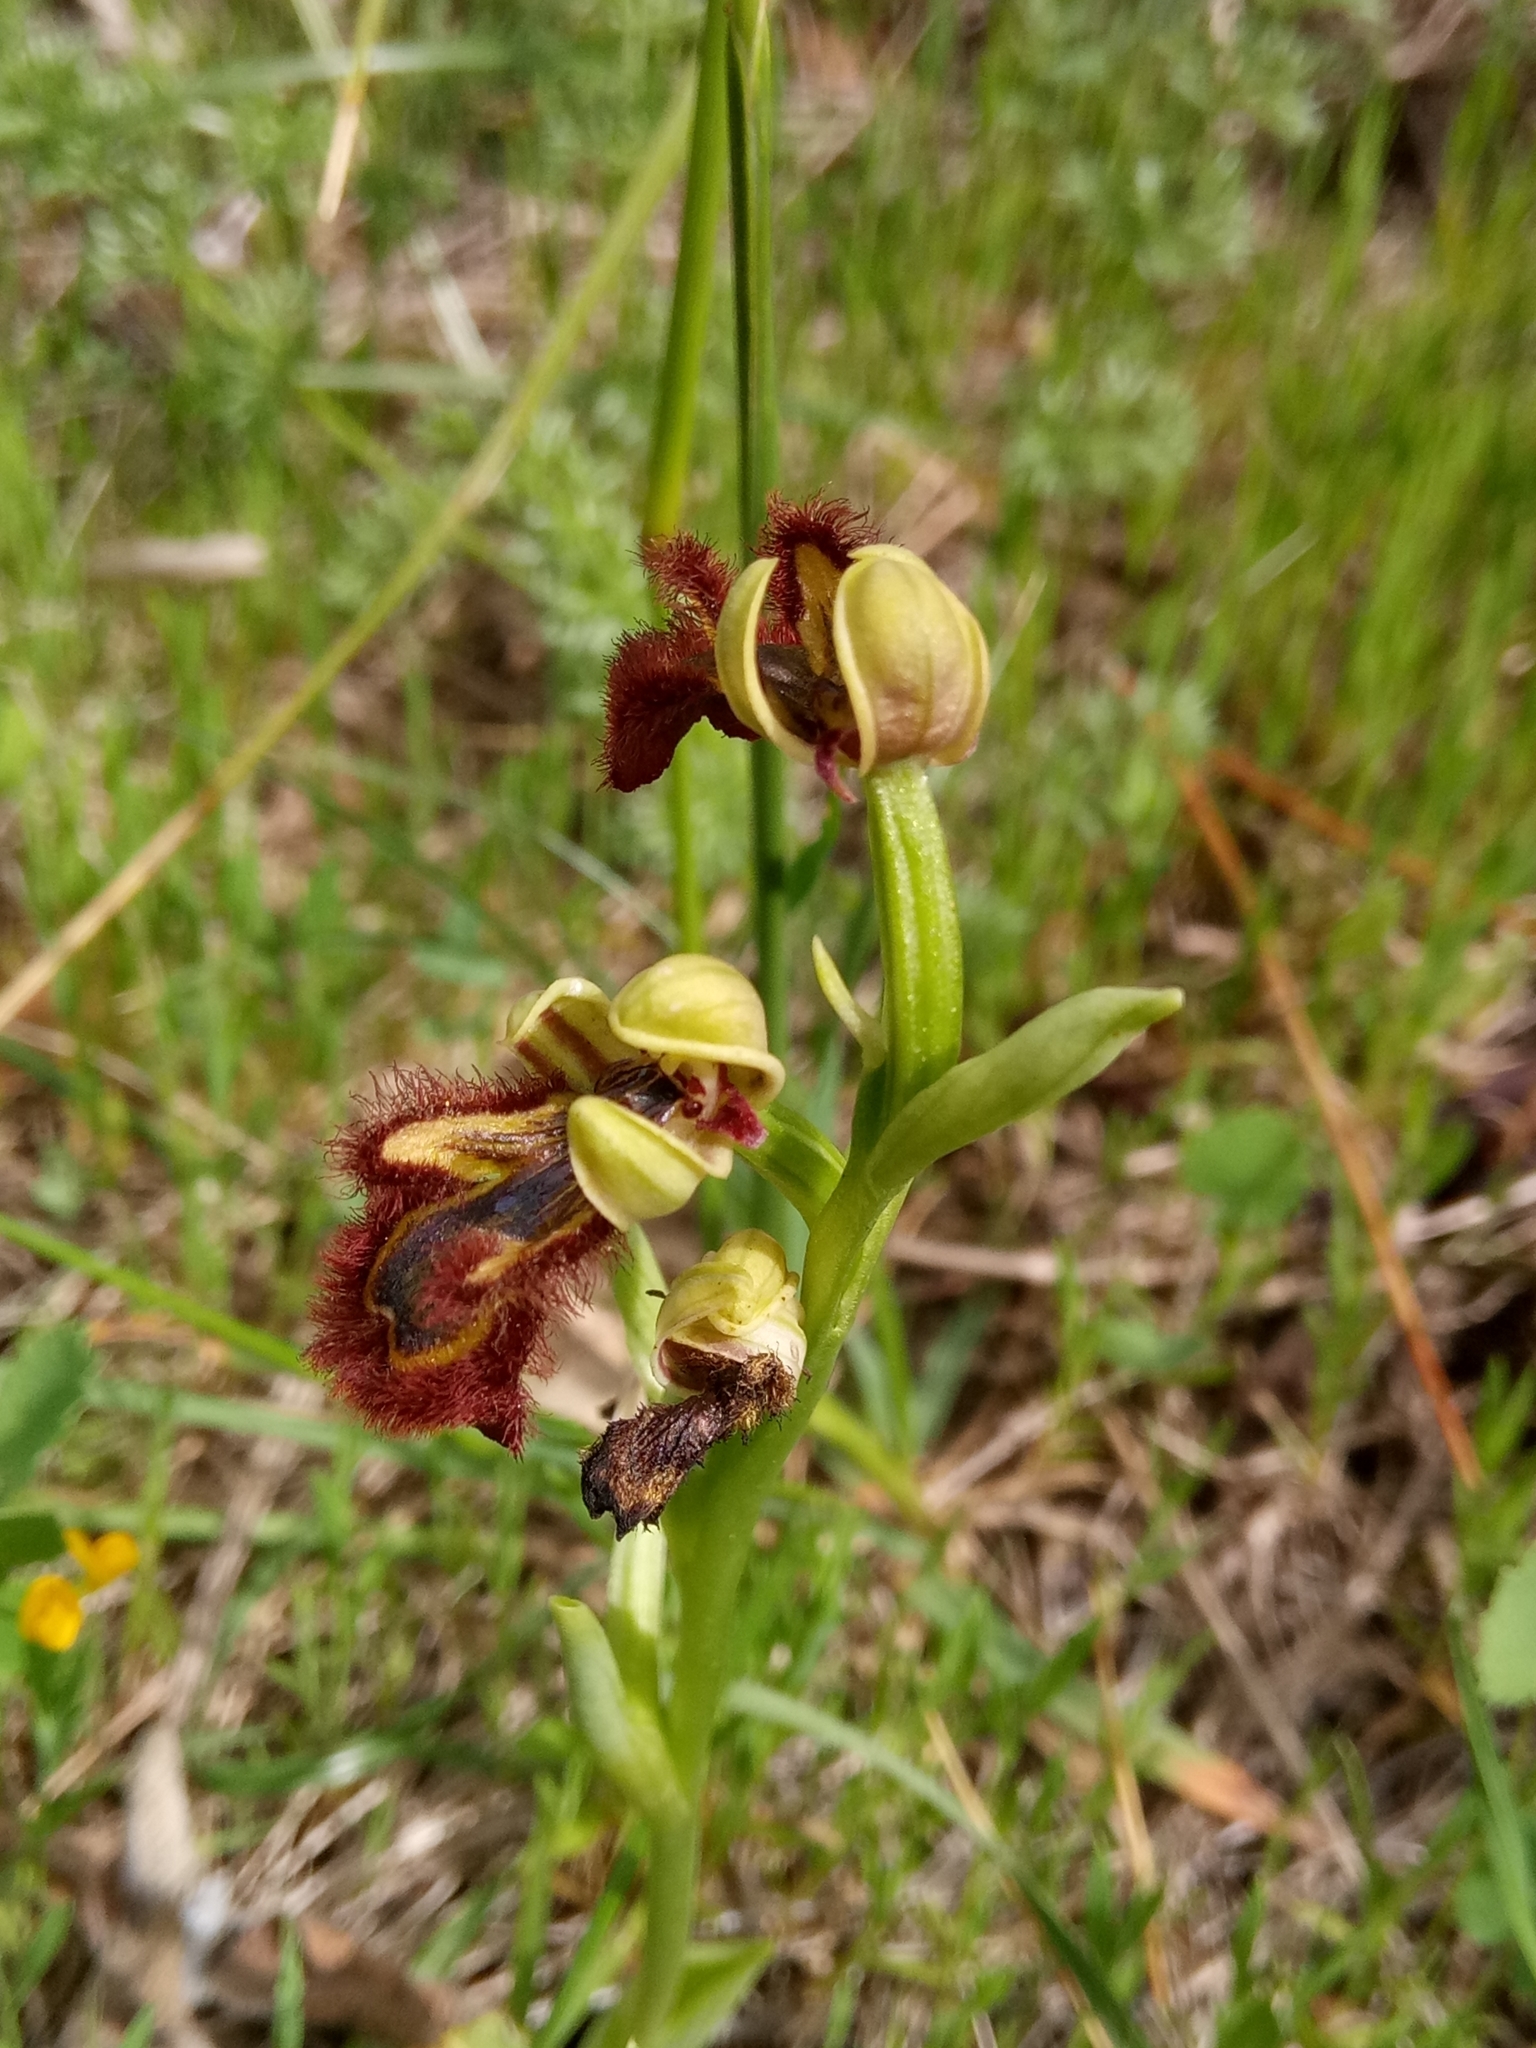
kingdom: Plantae
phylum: Tracheophyta
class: Liliopsida
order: Asparagales
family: Orchidaceae
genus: Ophrys
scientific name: Ophrys speculum
